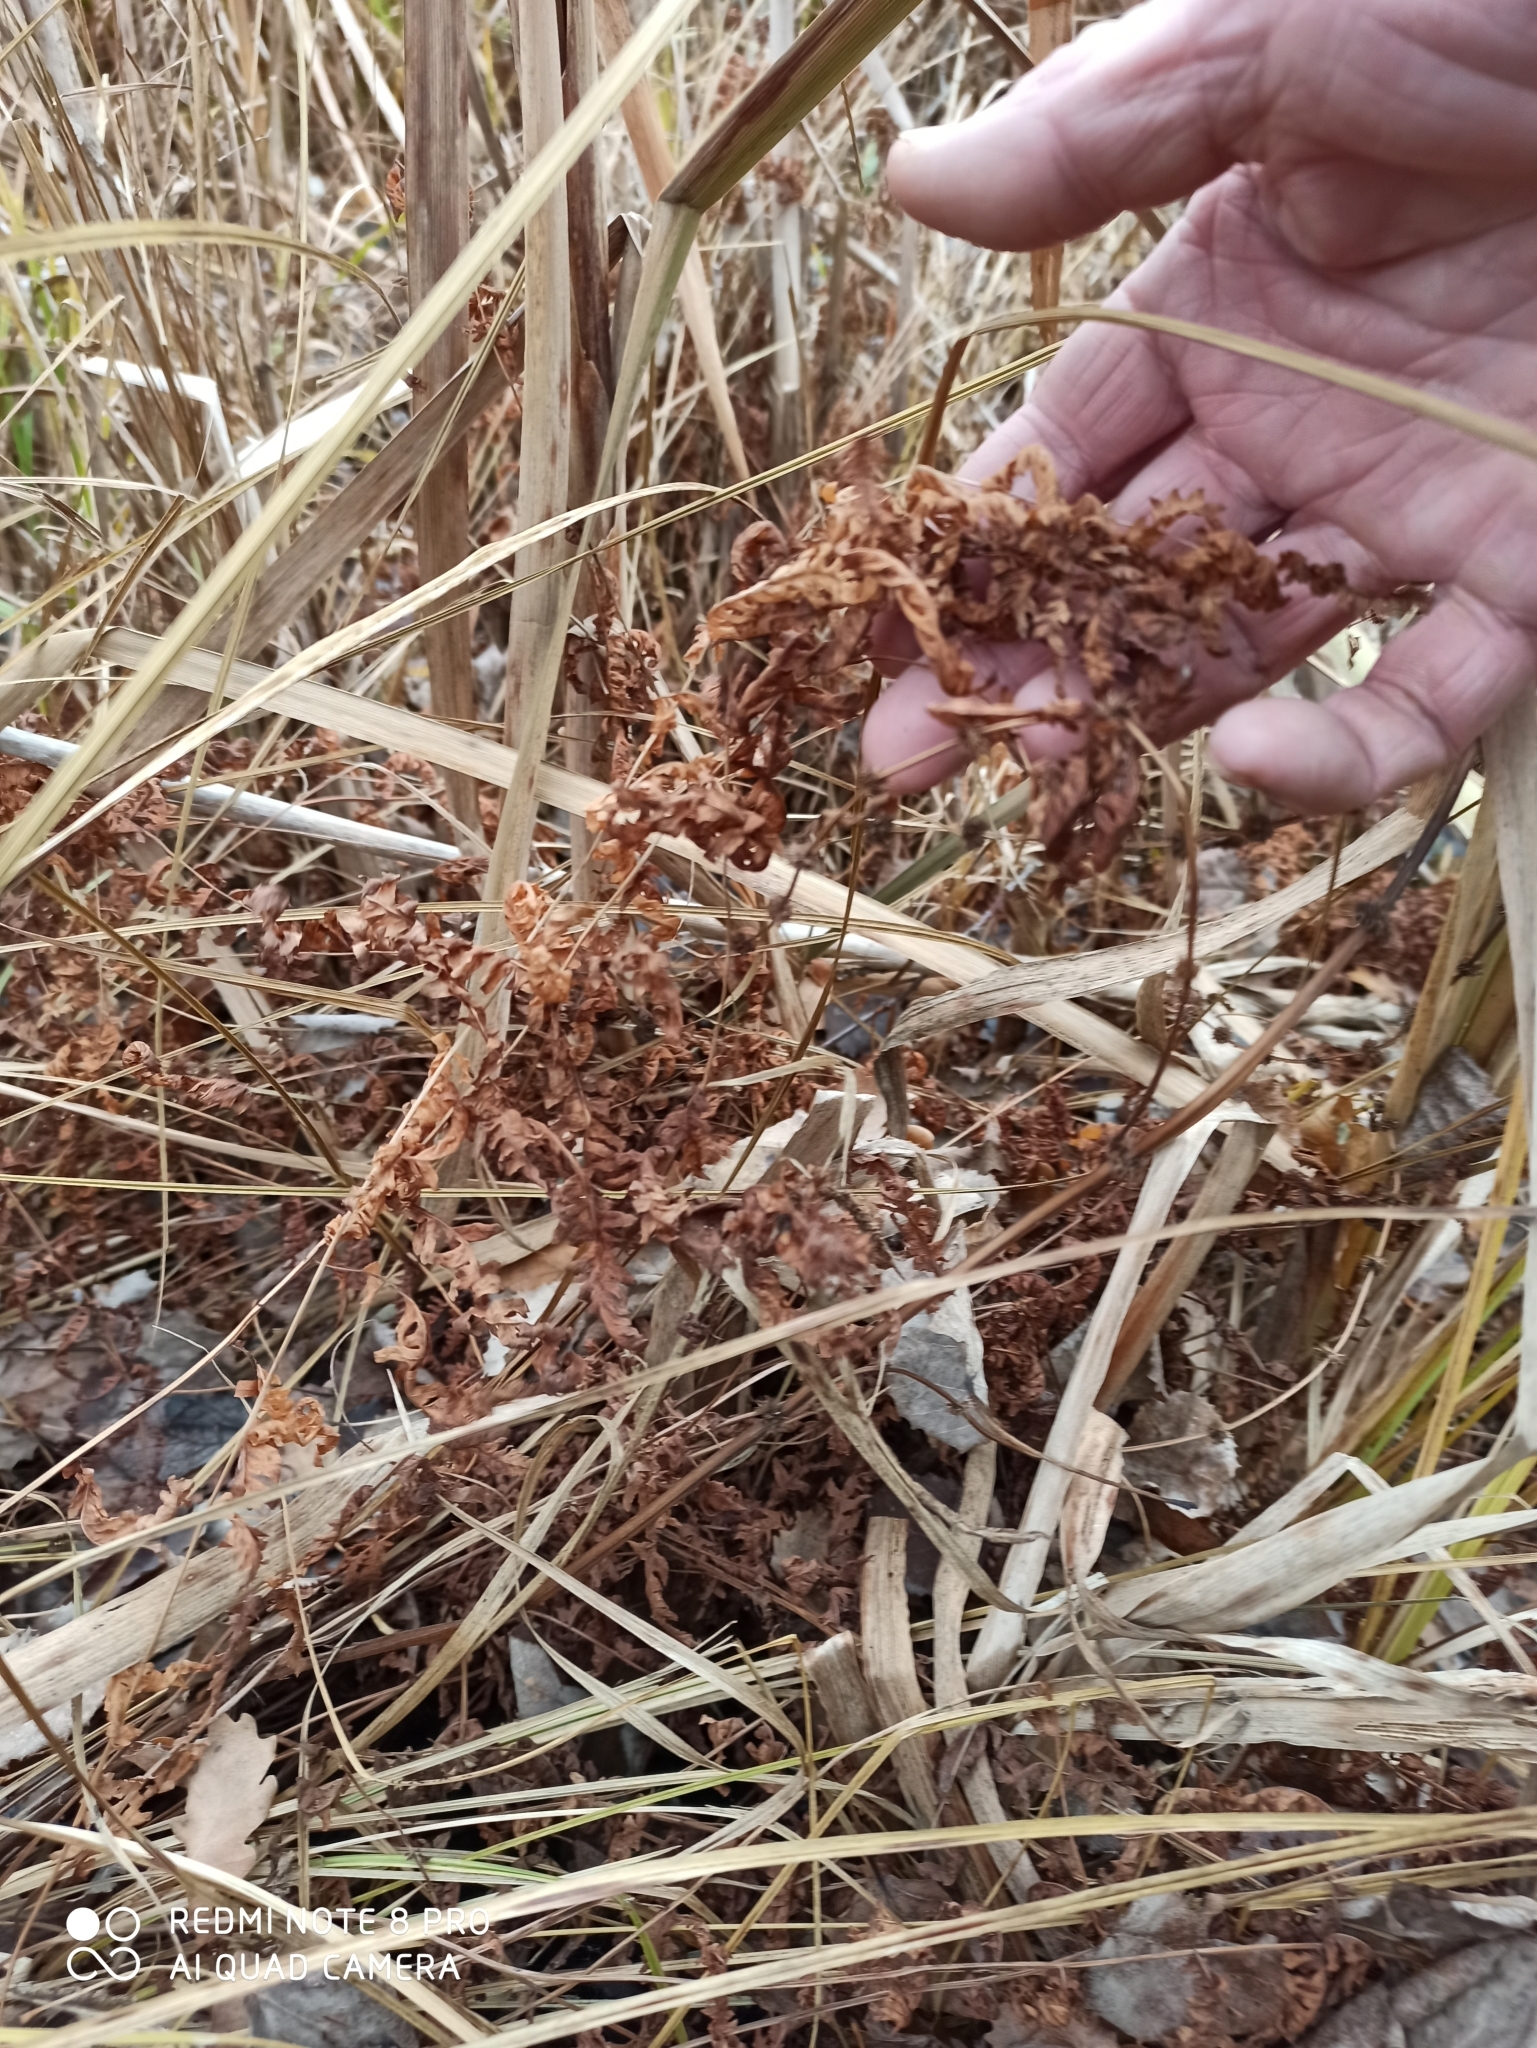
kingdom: Plantae
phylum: Tracheophyta
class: Polypodiopsida
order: Polypodiales
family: Thelypteridaceae
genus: Thelypteris
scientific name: Thelypteris palustris
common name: Marsh fern
